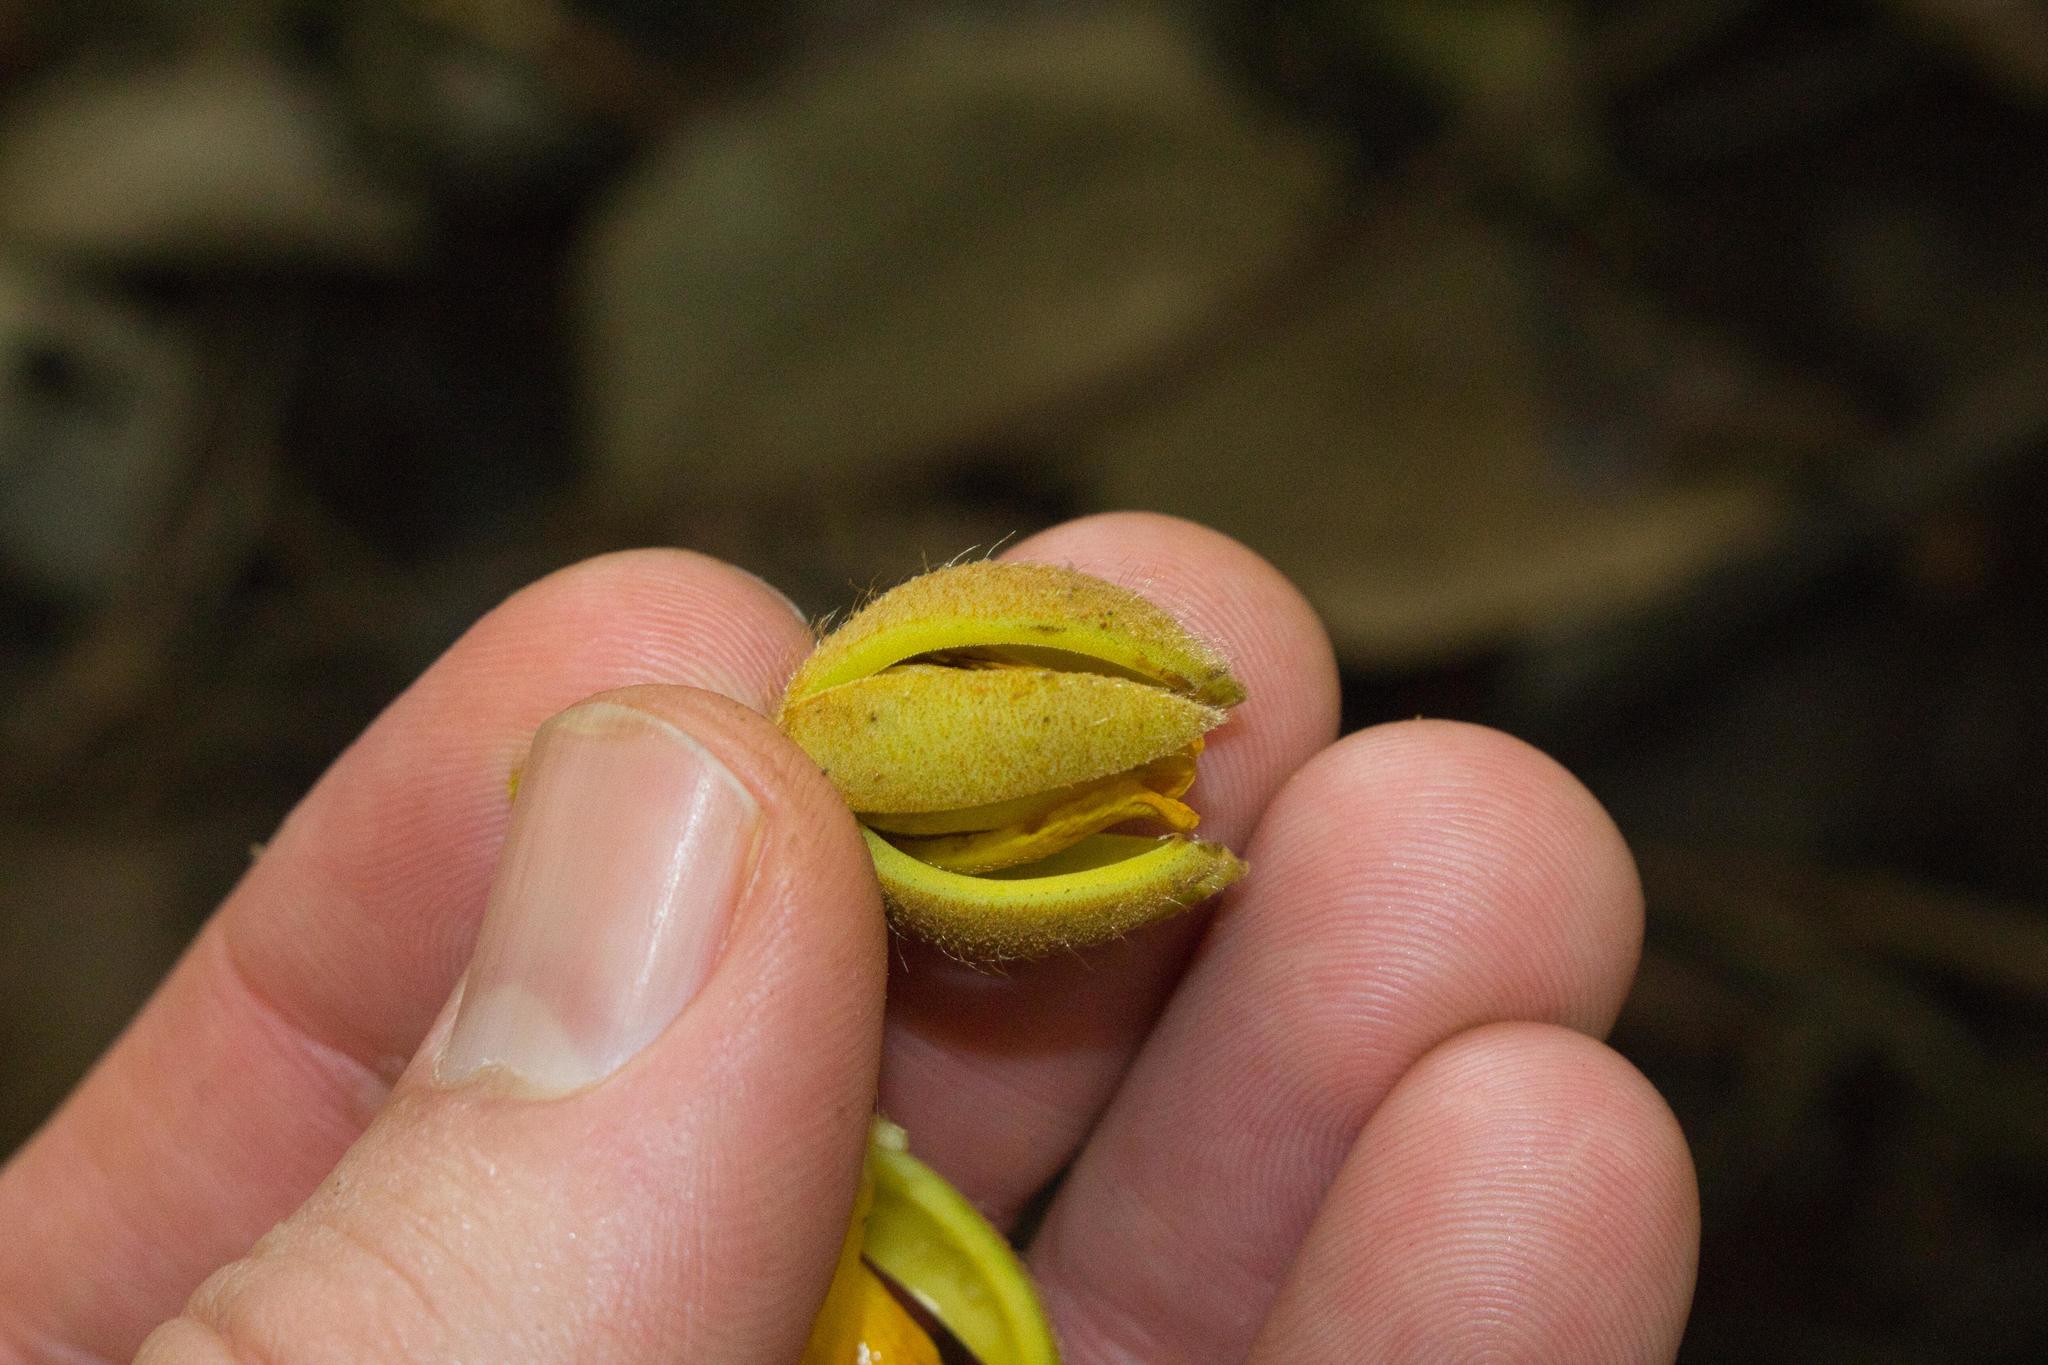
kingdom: Plantae
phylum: Tracheophyta
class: Magnoliopsida
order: Malvales
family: Malvaceae
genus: Apeiba
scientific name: Apeiba tibourbou
